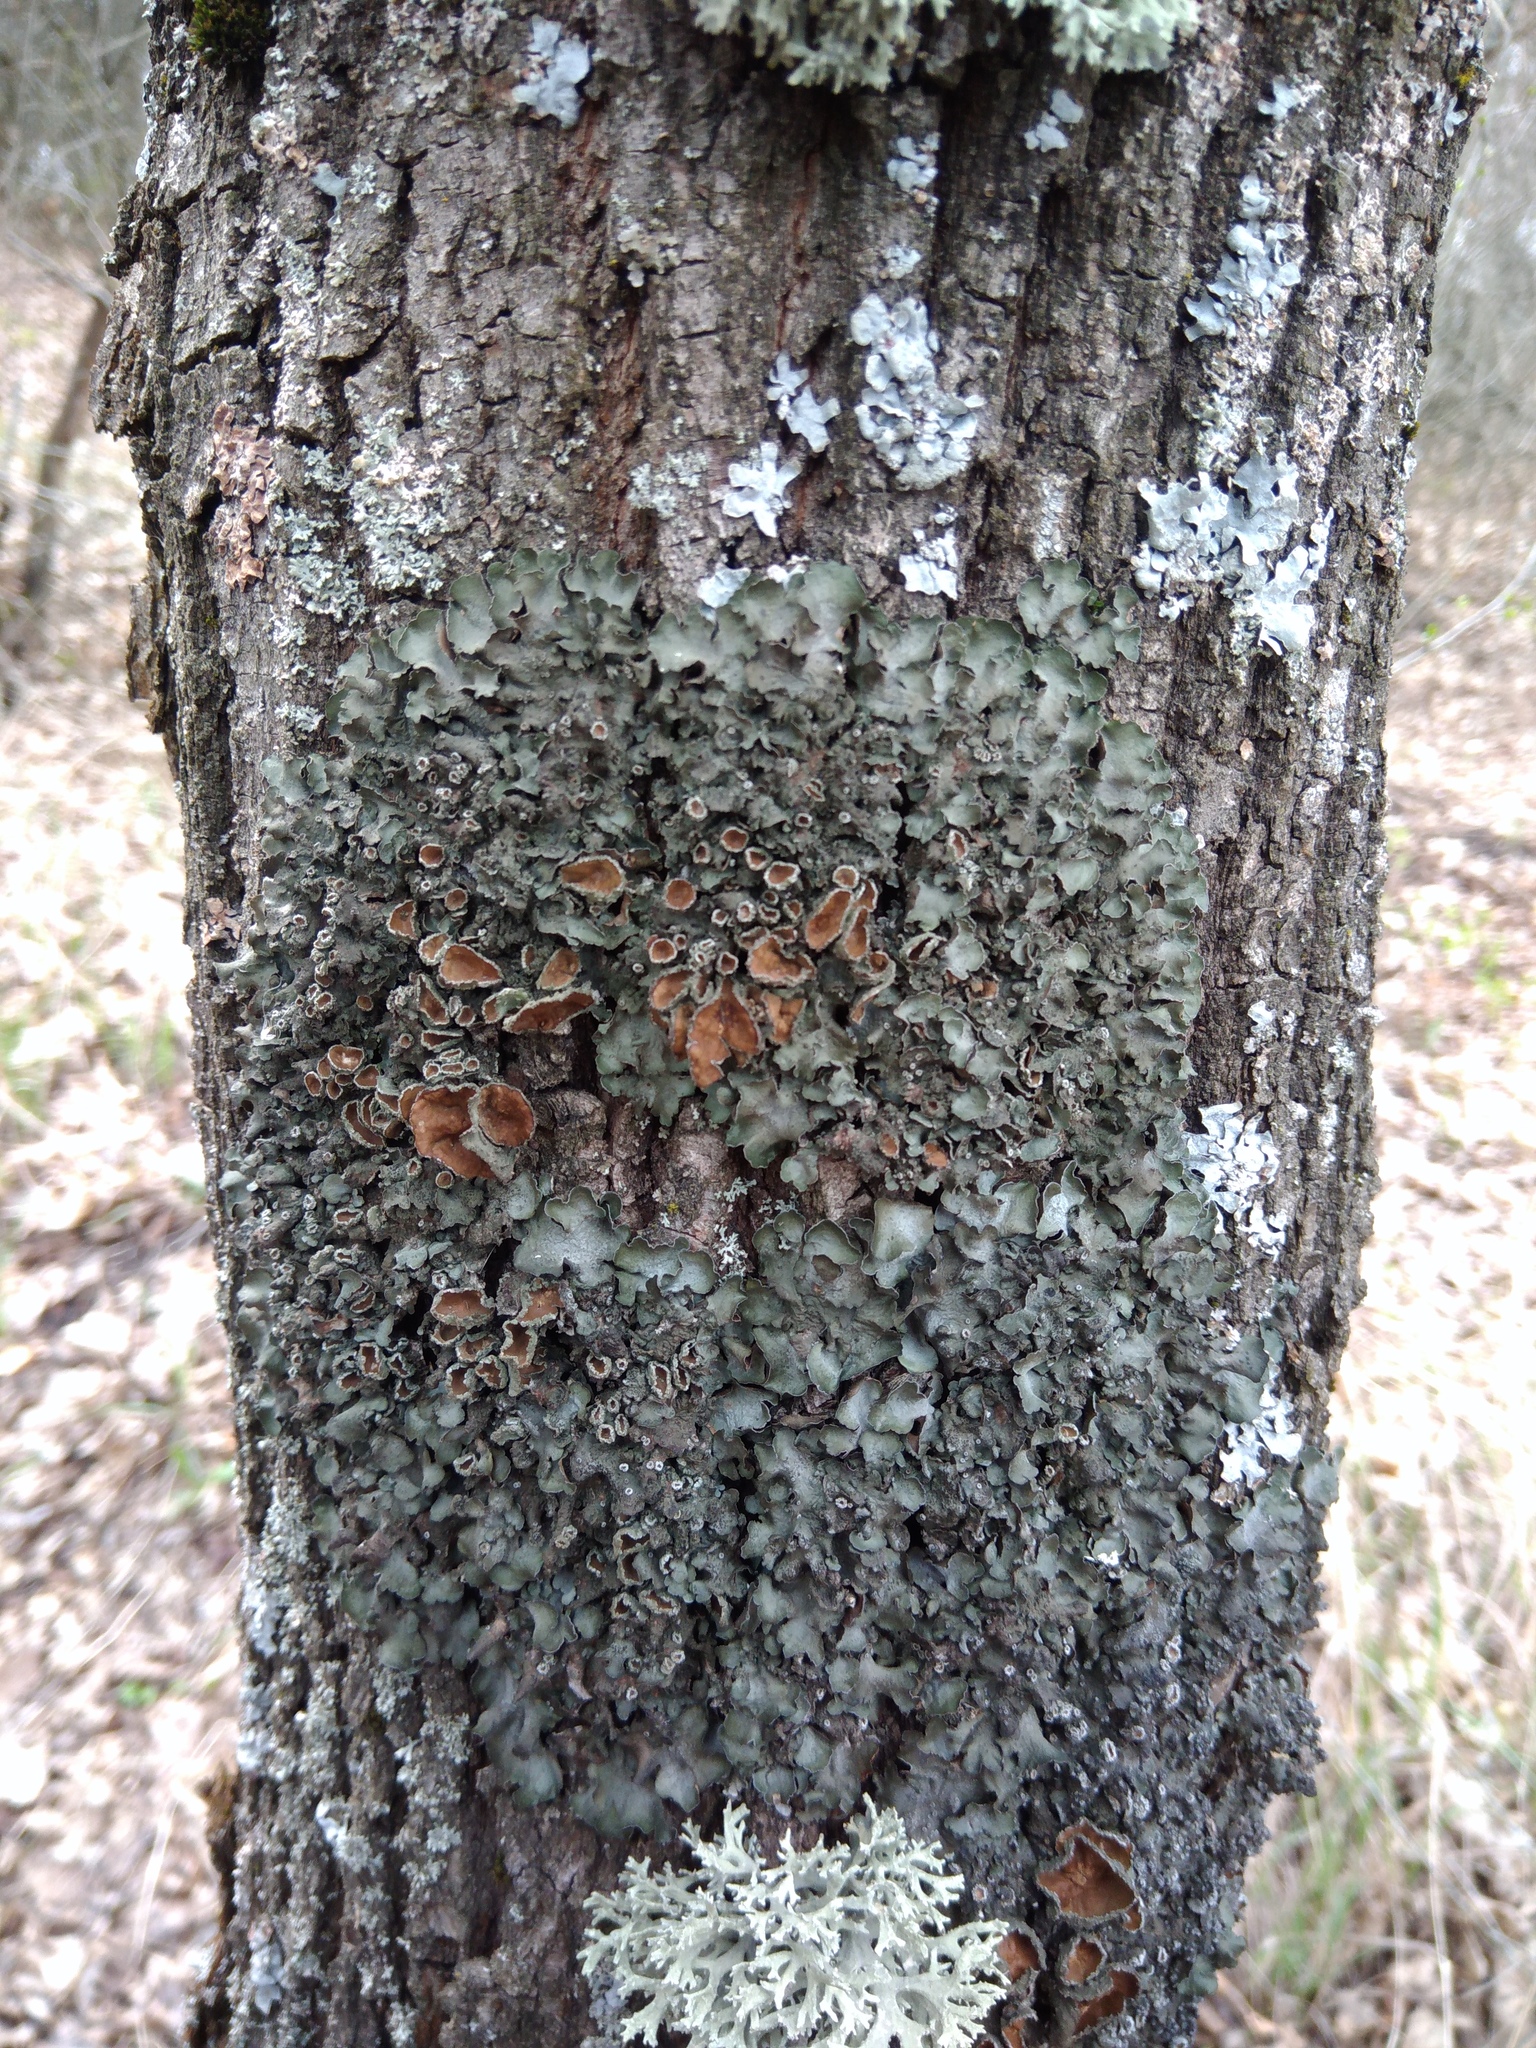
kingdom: Fungi
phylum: Ascomycota
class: Lecanoromycetes
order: Lecanorales
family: Parmeliaceae
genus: Pleurosticta
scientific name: Pleurosticta acetabulum
